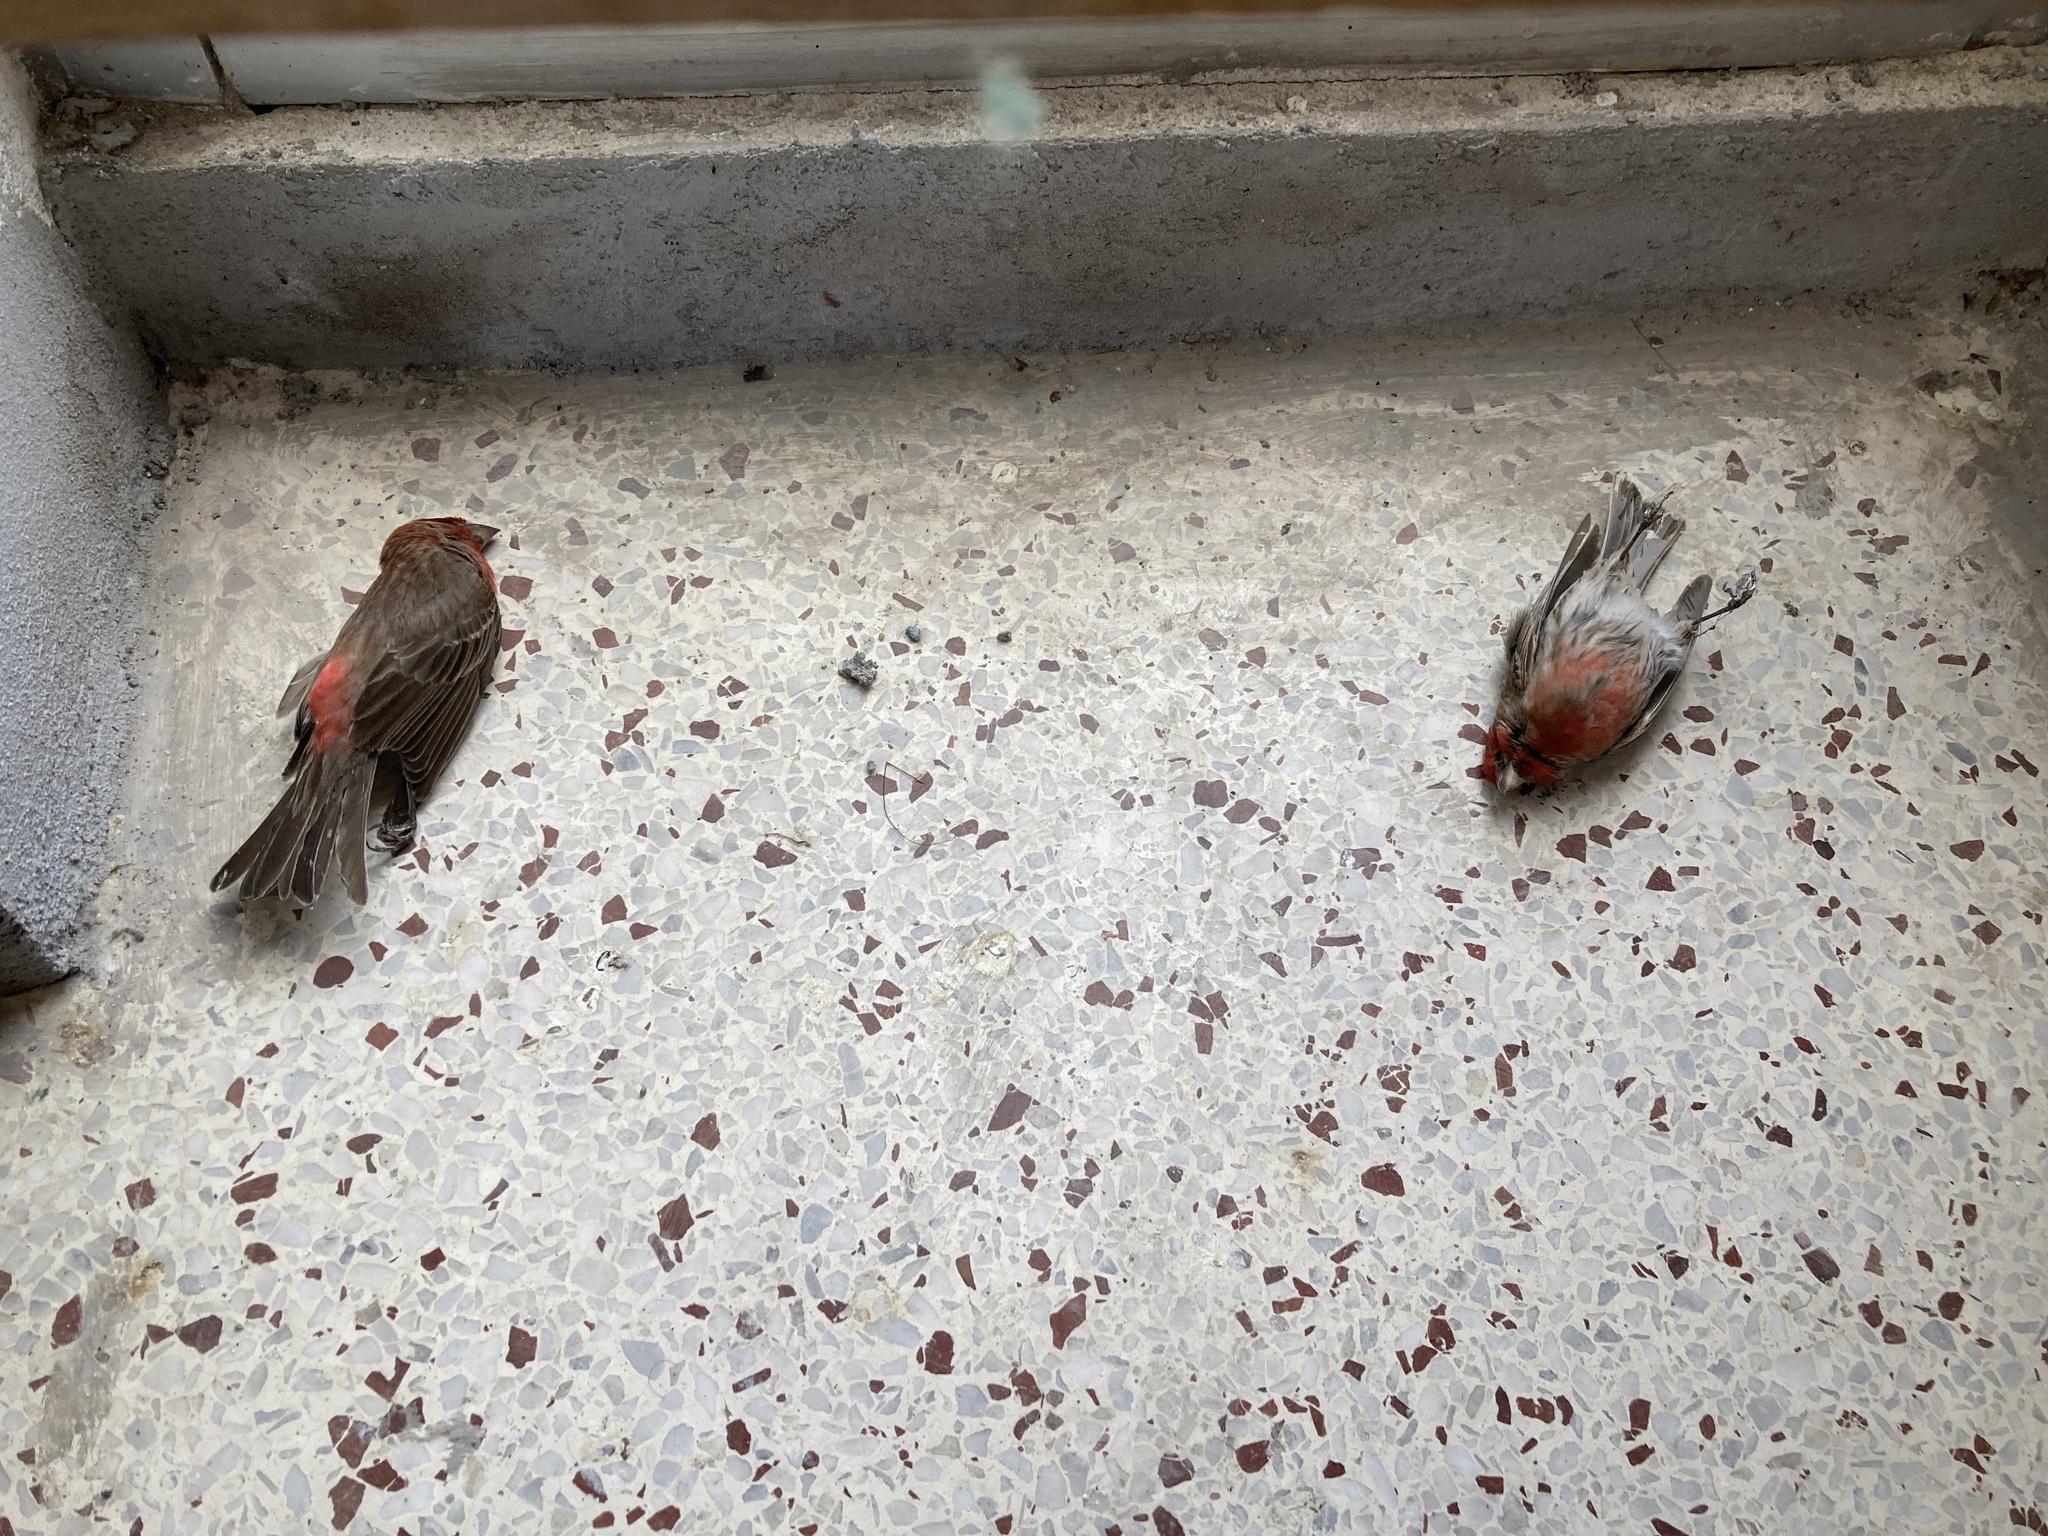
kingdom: Animalia
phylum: Chordata
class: Aves
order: Passeriformes
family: Fringillidae
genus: Haemorhous
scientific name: Haemorhous mexicanus
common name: House finch
